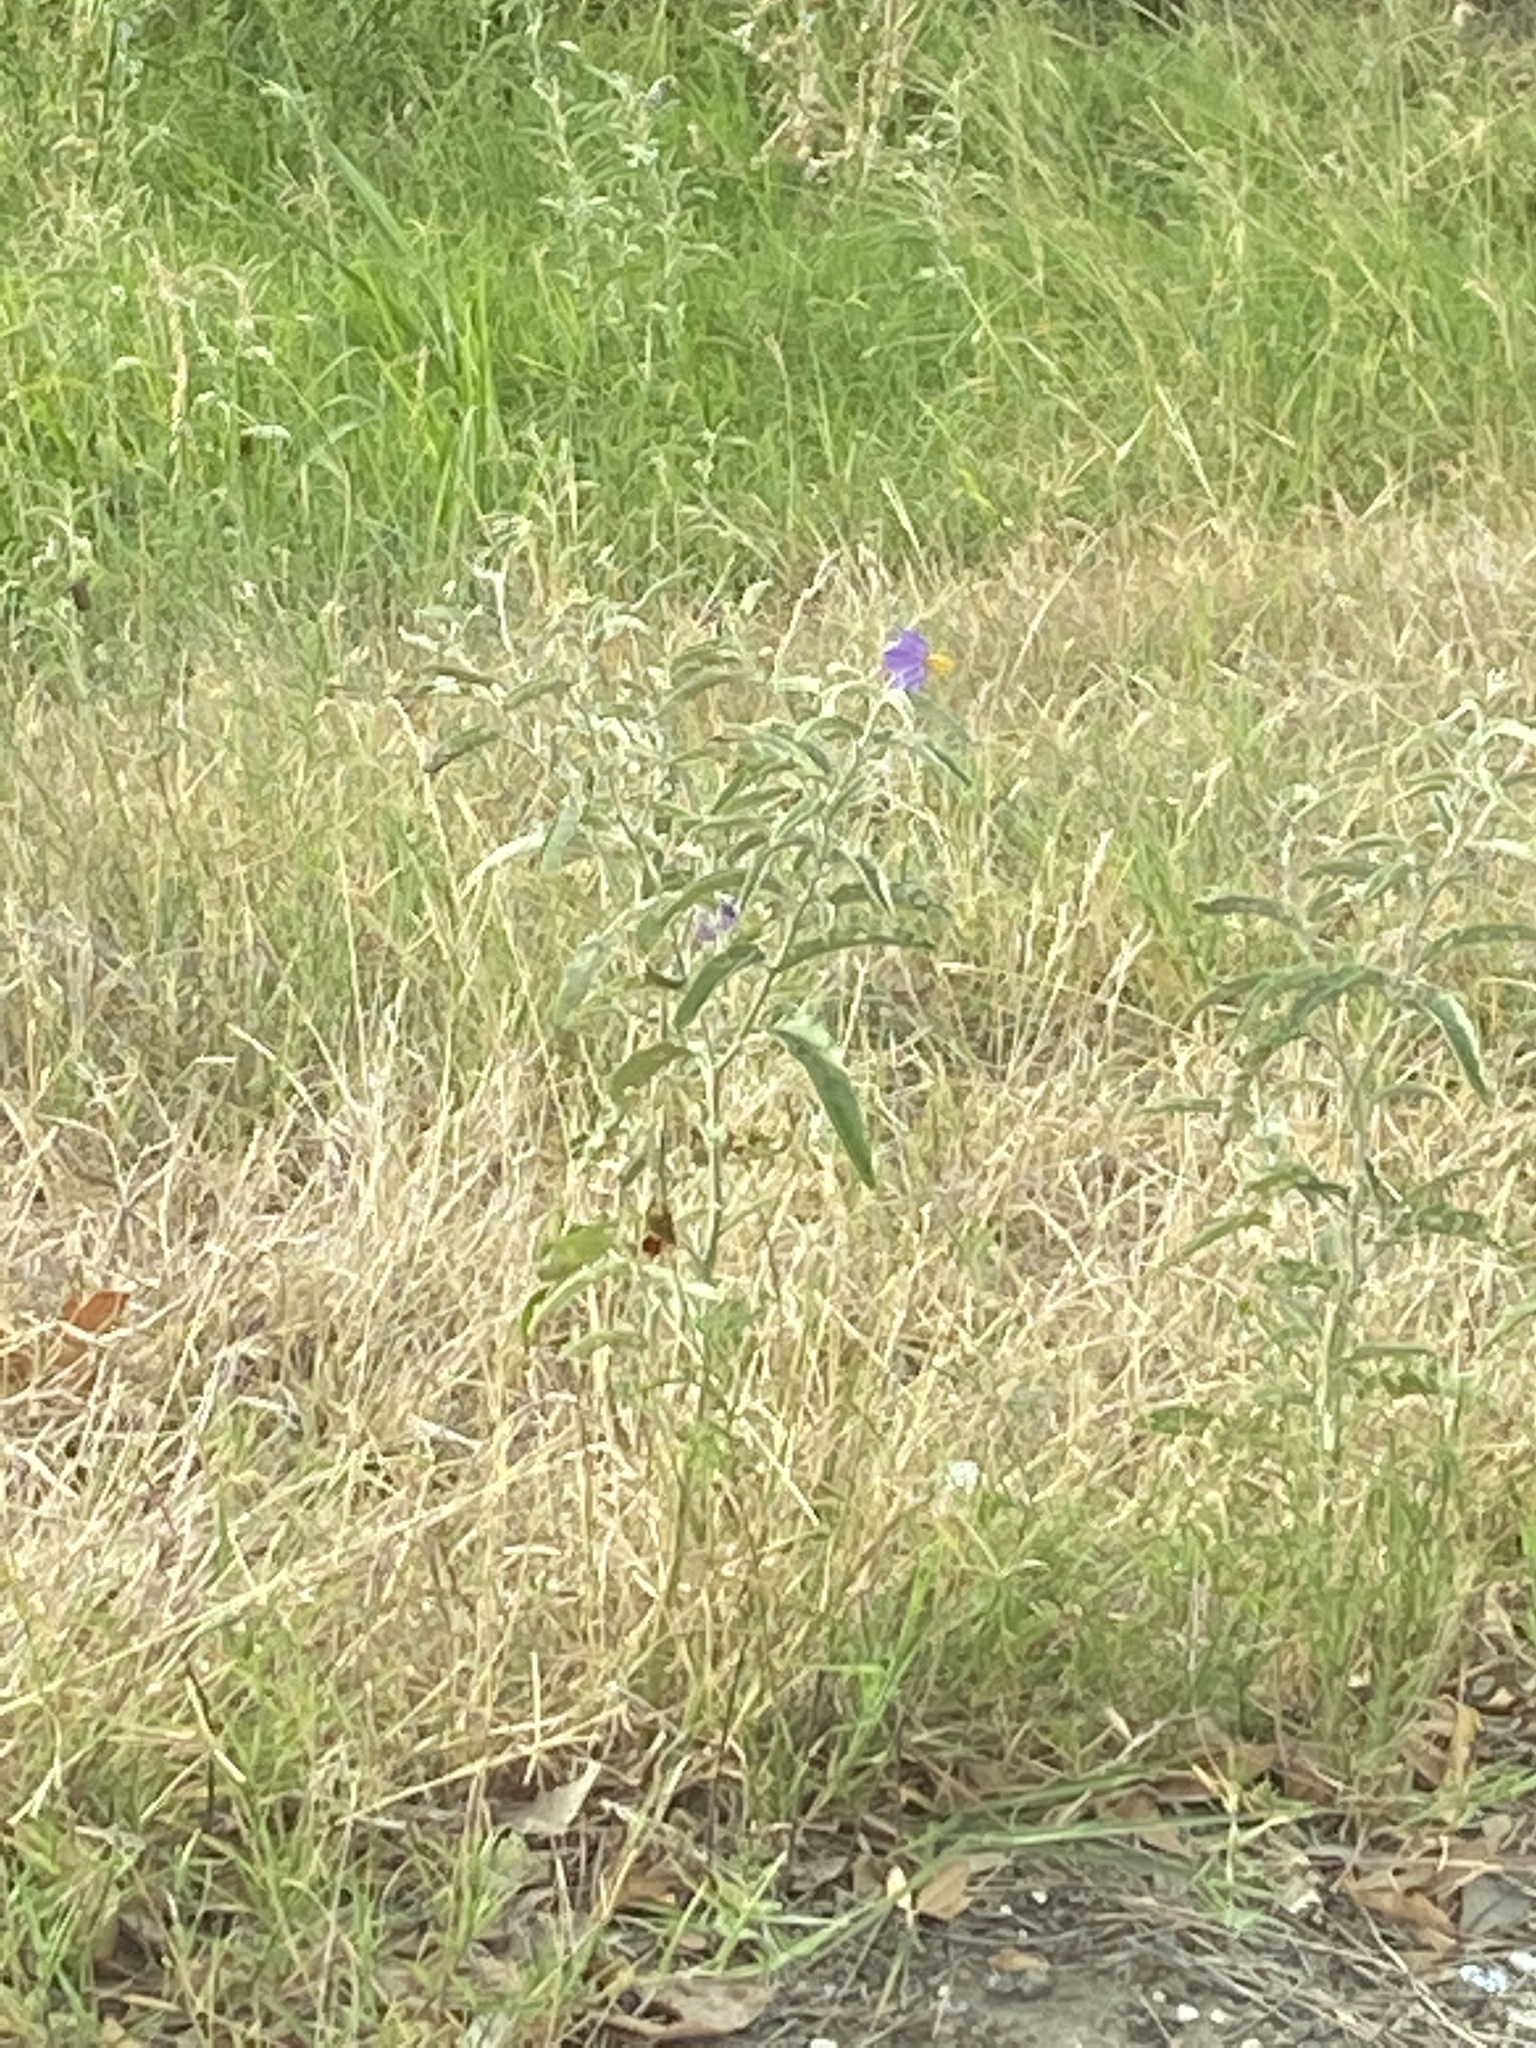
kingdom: Plantae
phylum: Tracheophyta
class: Magnoliopsida
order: Solanales
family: Solanaceae
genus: Solanum
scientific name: Solanum elaeagnifolium
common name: Silverleaf nightshade
